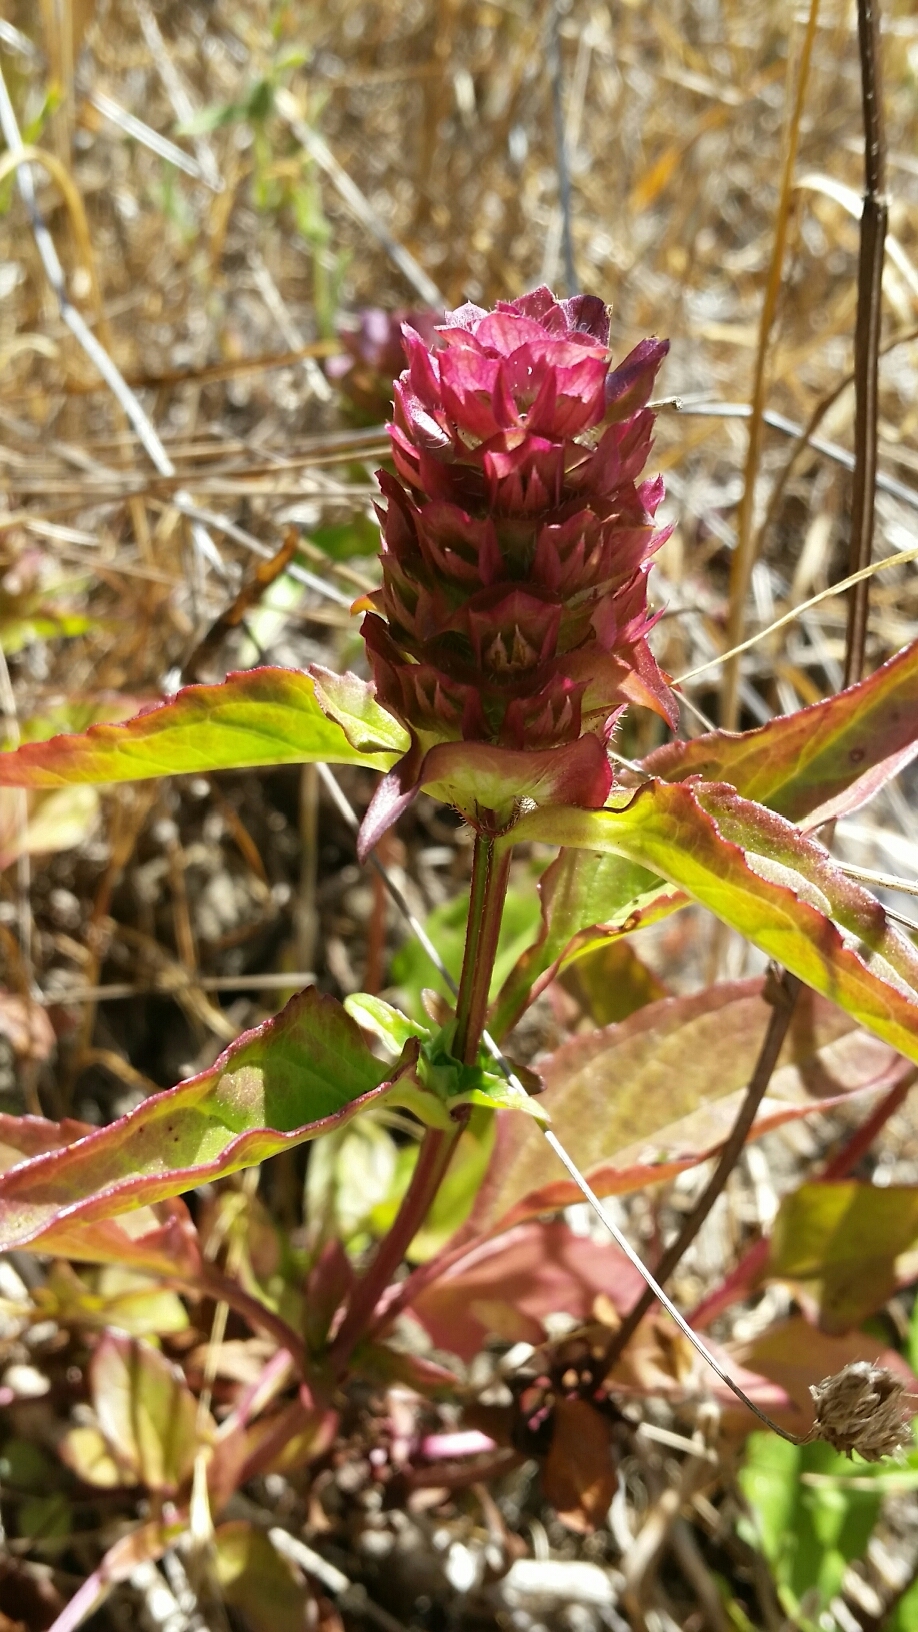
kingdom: Plantae
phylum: Tracheophyta
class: Magnoliopsida
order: Lamiales
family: Lamiaceae
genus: Prunella
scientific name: Prunella vulgaris
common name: Heal-all
